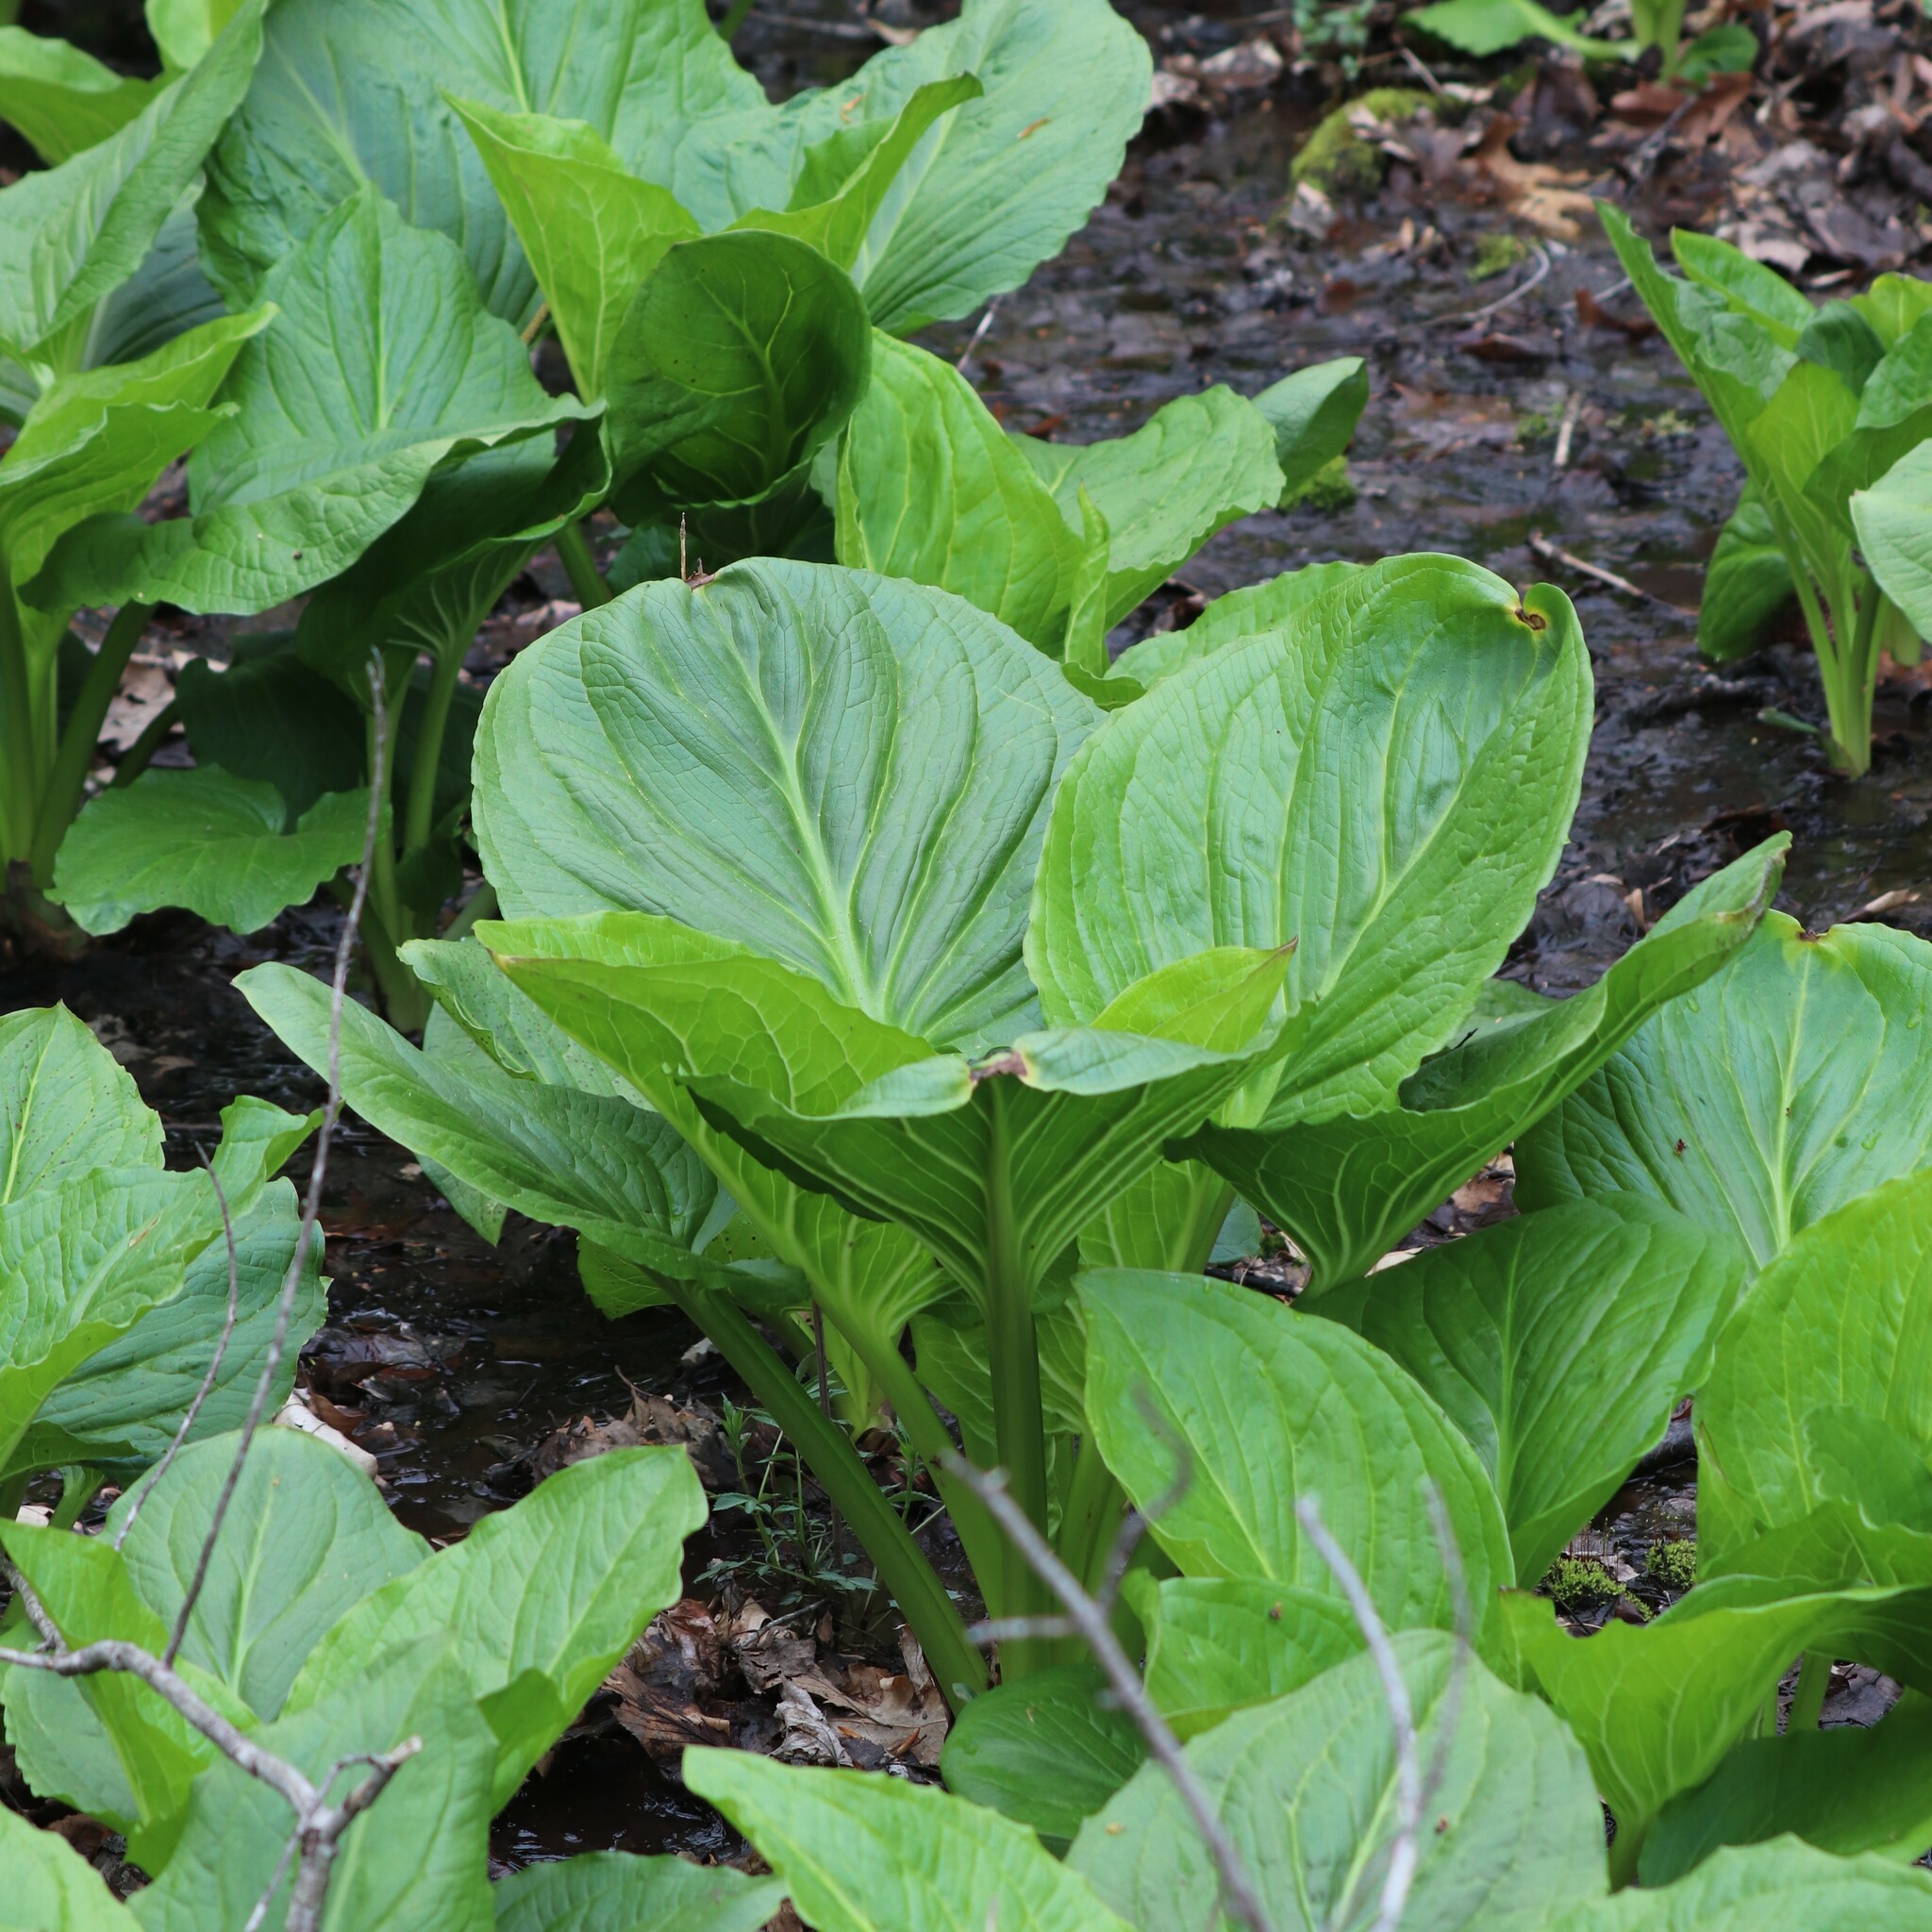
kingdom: Plantae
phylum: Tracheophyta
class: Liliopsida
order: Alismatales
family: Araceae
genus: Symplocarpus
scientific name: Symplocarpus foetidus
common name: Eastern skunk cabbage
